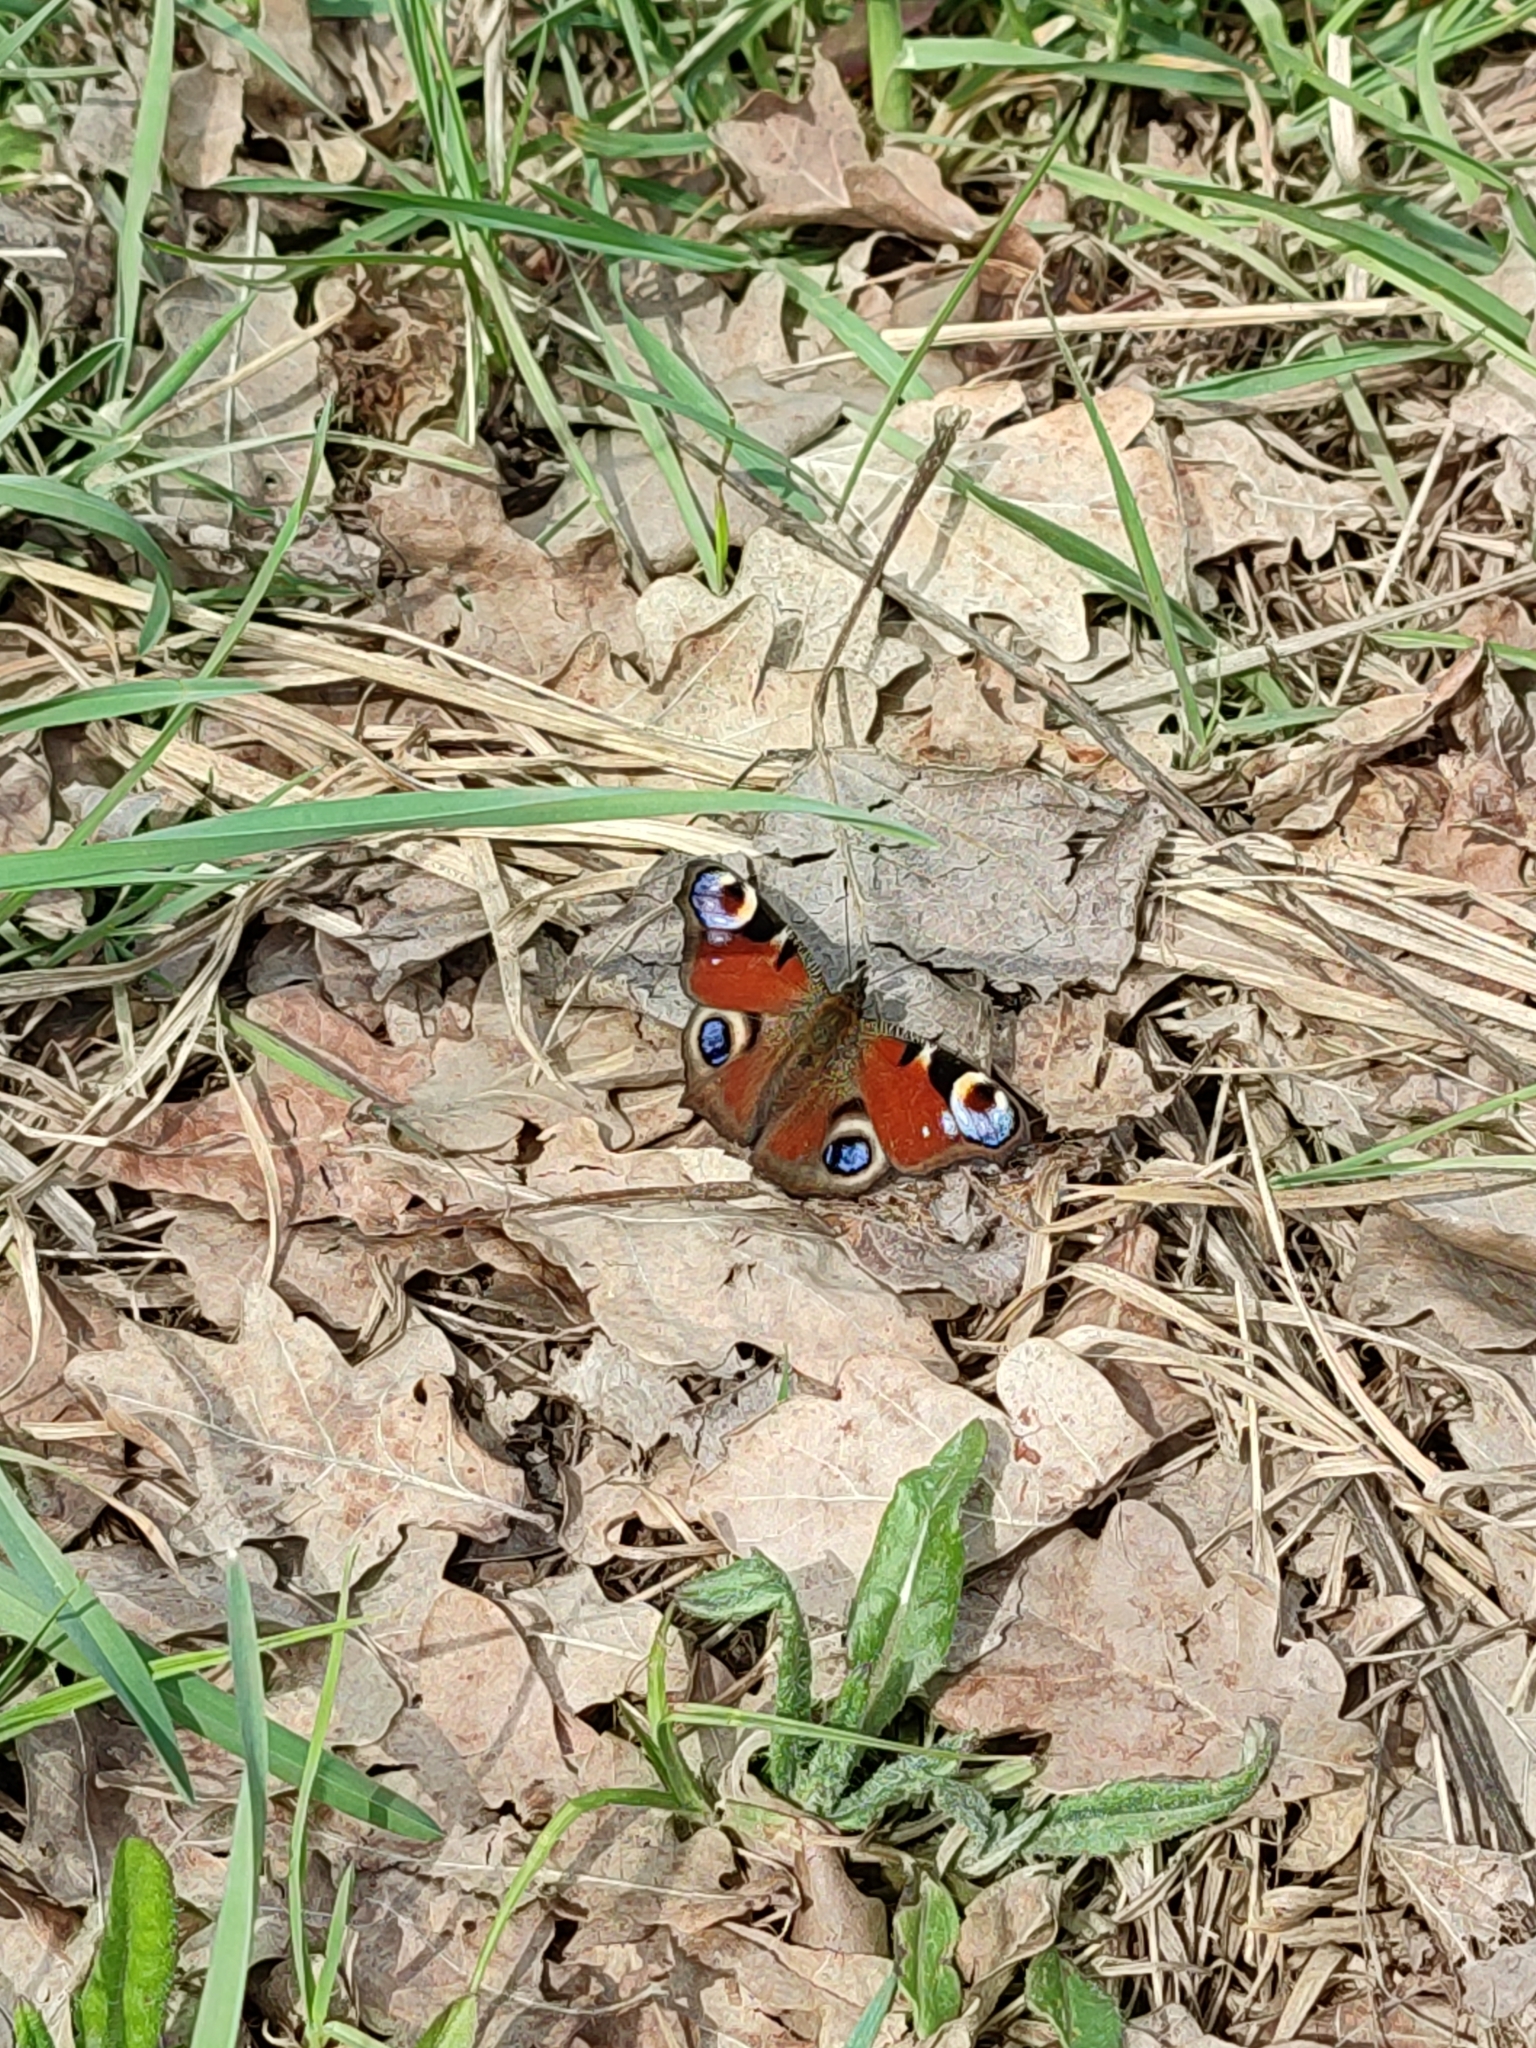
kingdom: Animalia
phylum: Arthropoda
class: Insecta
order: Lepidoptera
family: Nymphalidae
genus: Aglais
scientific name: Aglais io
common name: Peacock
